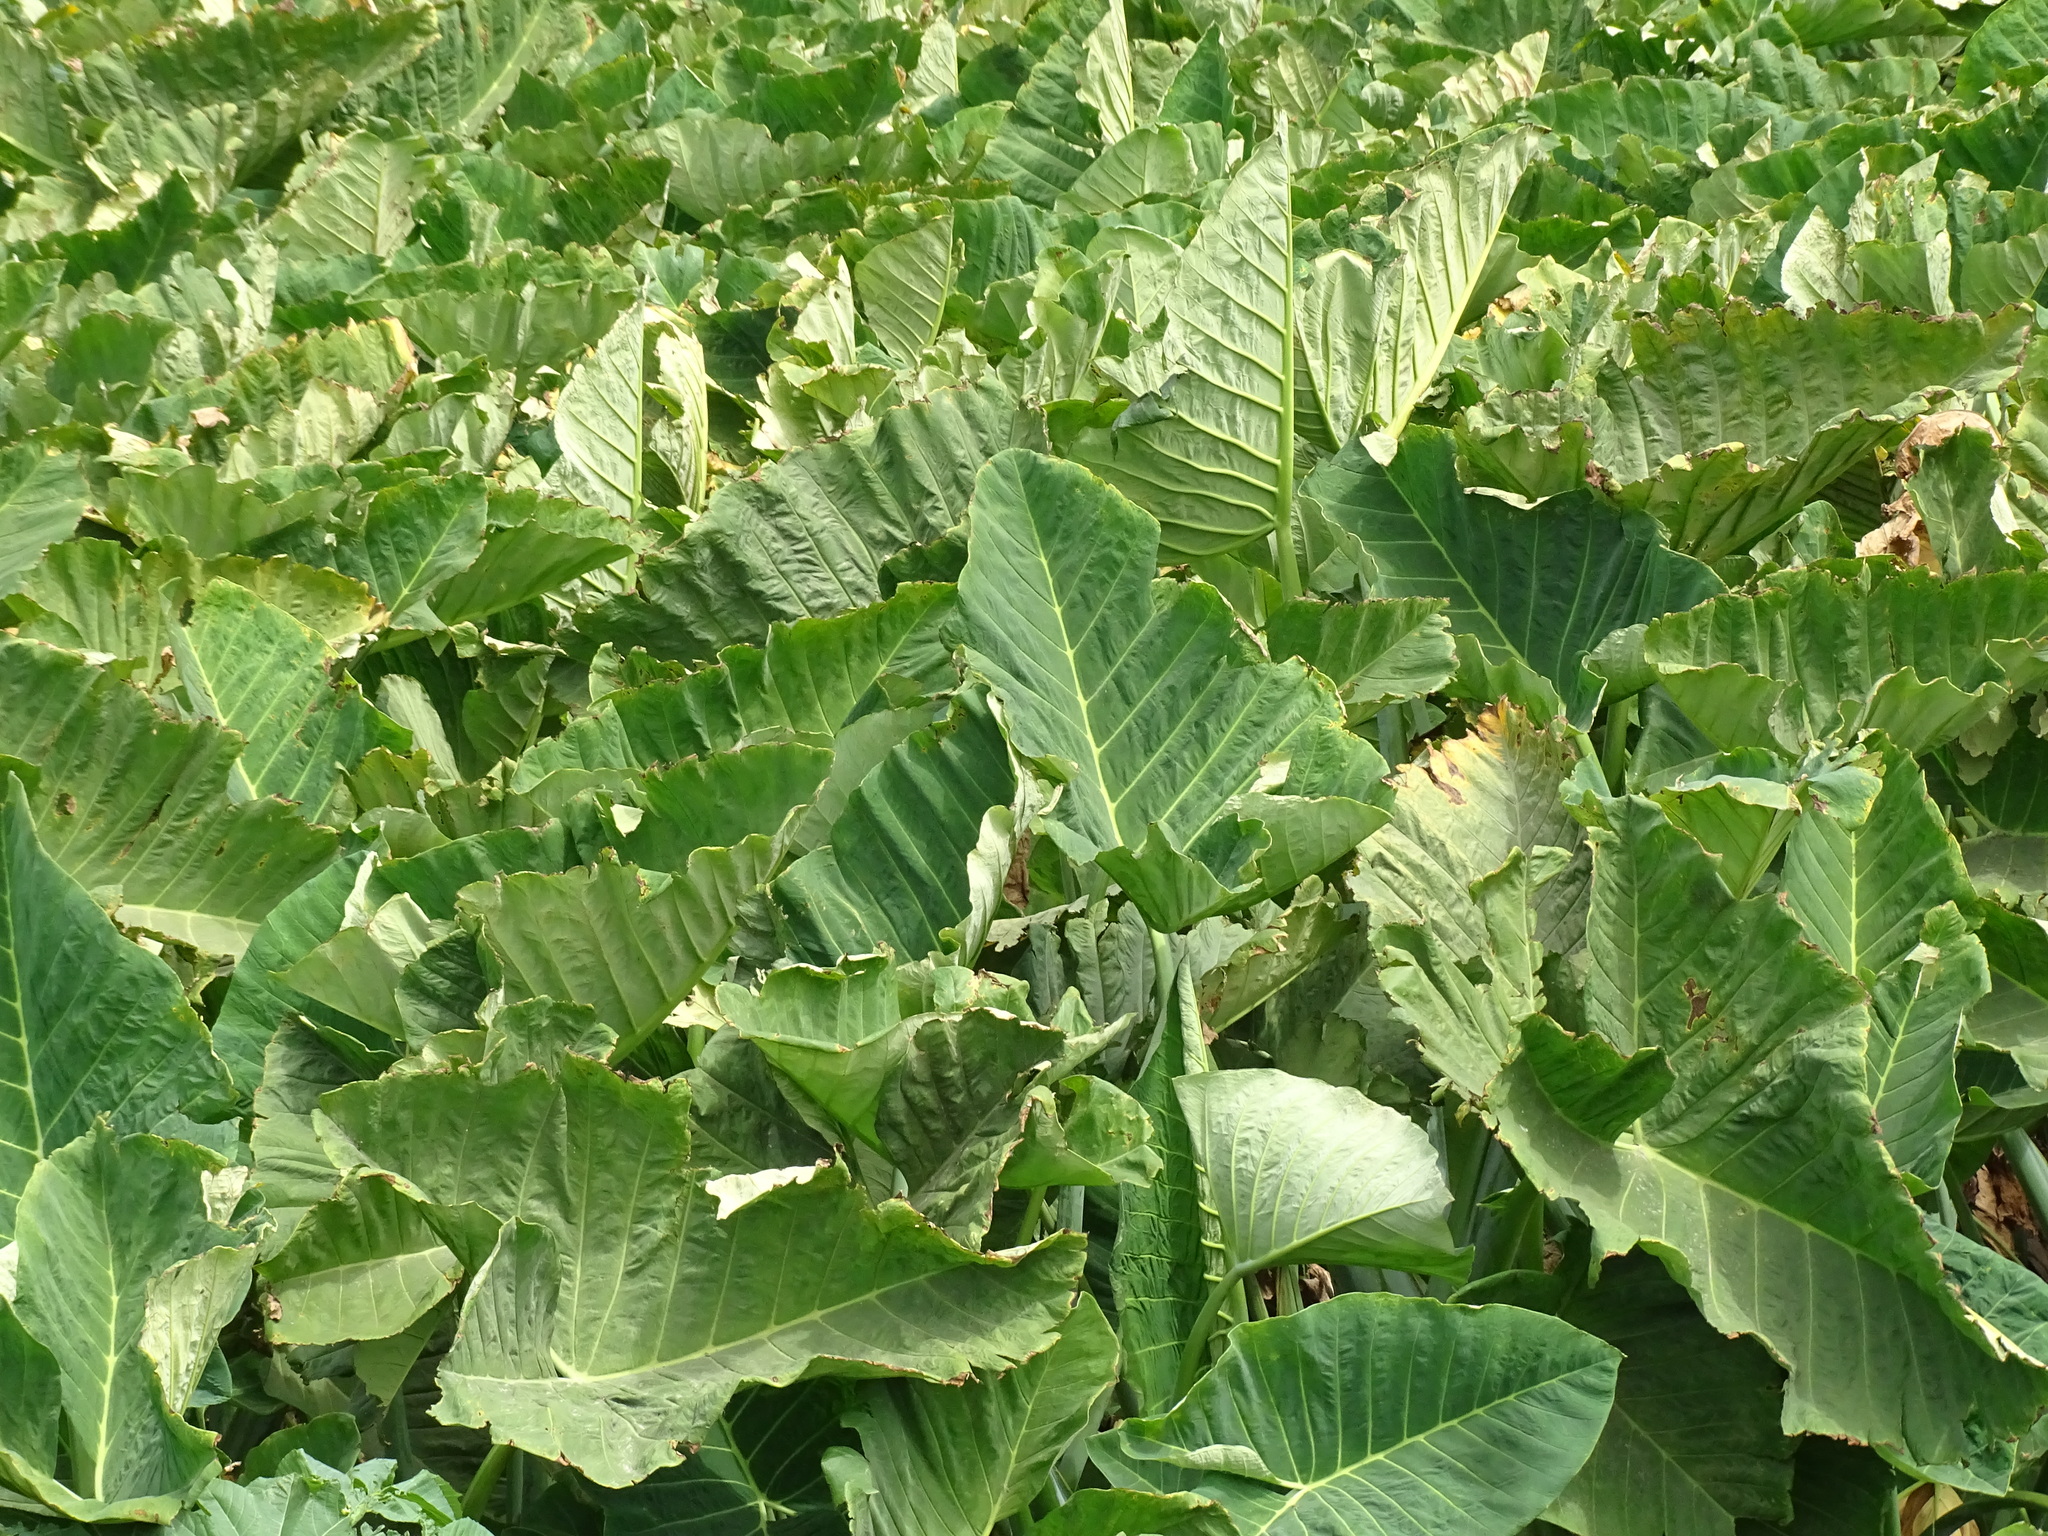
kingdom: Plantae
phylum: Tracheophyta
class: Liliopsida
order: Alismatales
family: Araceae
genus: Xanthosoma
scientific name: Xanthosoma robustum
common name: Capote
